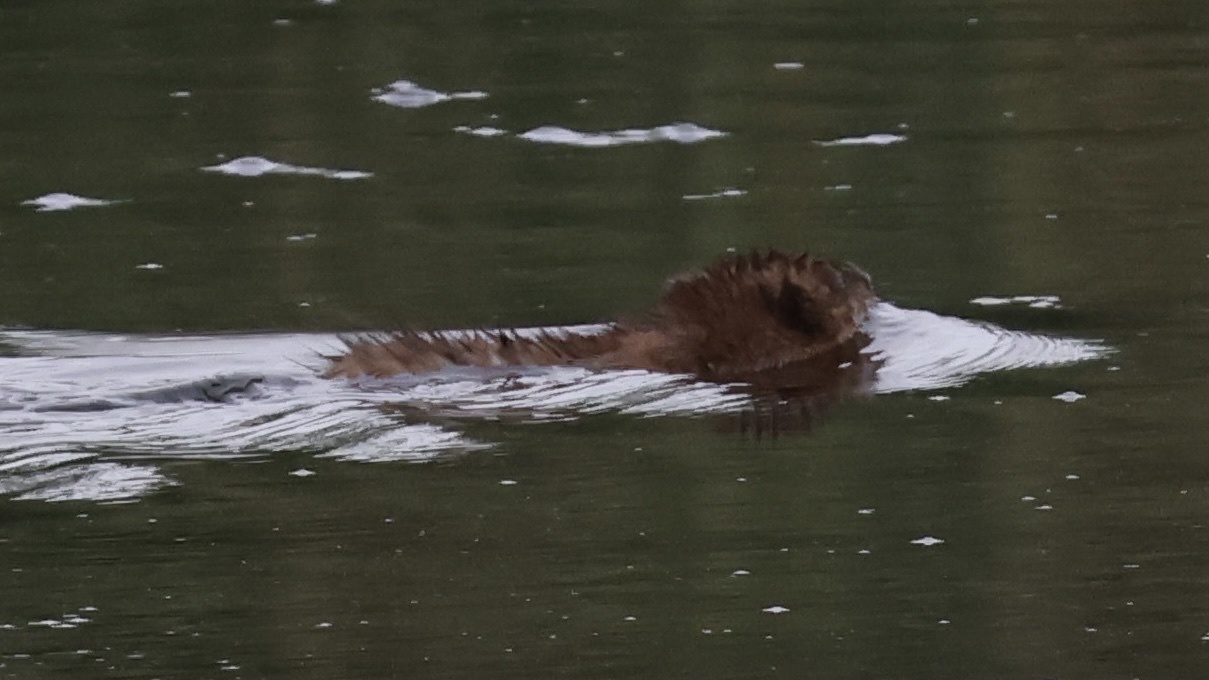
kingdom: Animalia
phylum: Chordata
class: Mammalia
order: Carnivora
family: Mustelidae
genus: Mustela
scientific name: Mustela
